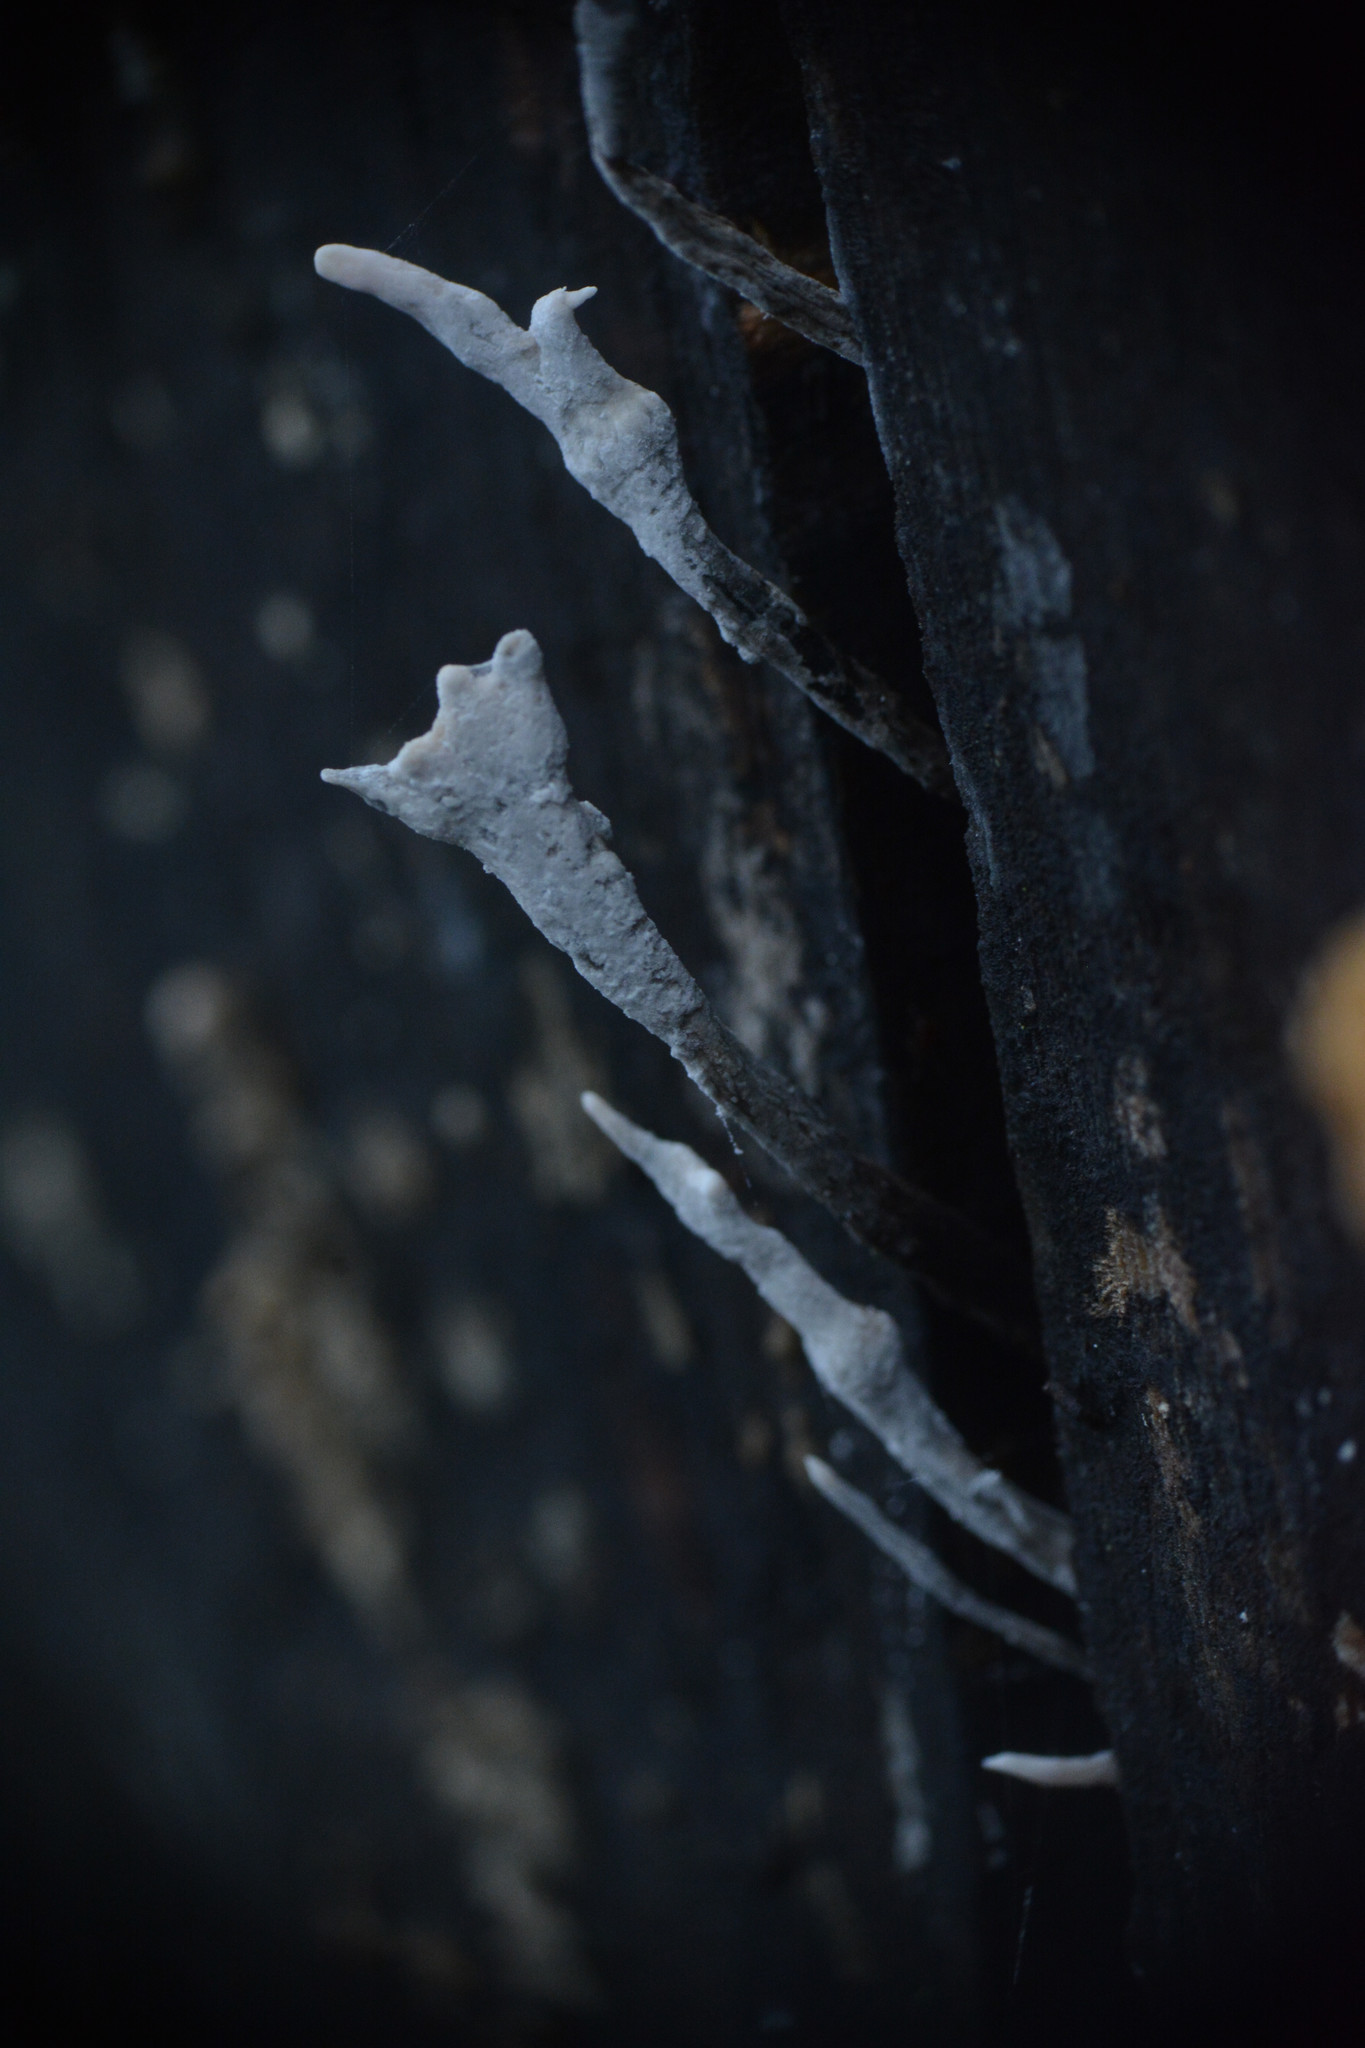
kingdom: Fungi
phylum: Ascomycota
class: Sordariomycetes
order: Xylariales
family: Xylariaceae
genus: Xylaria
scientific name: Xylaria hypoxylon
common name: Candle-snuff fungus
